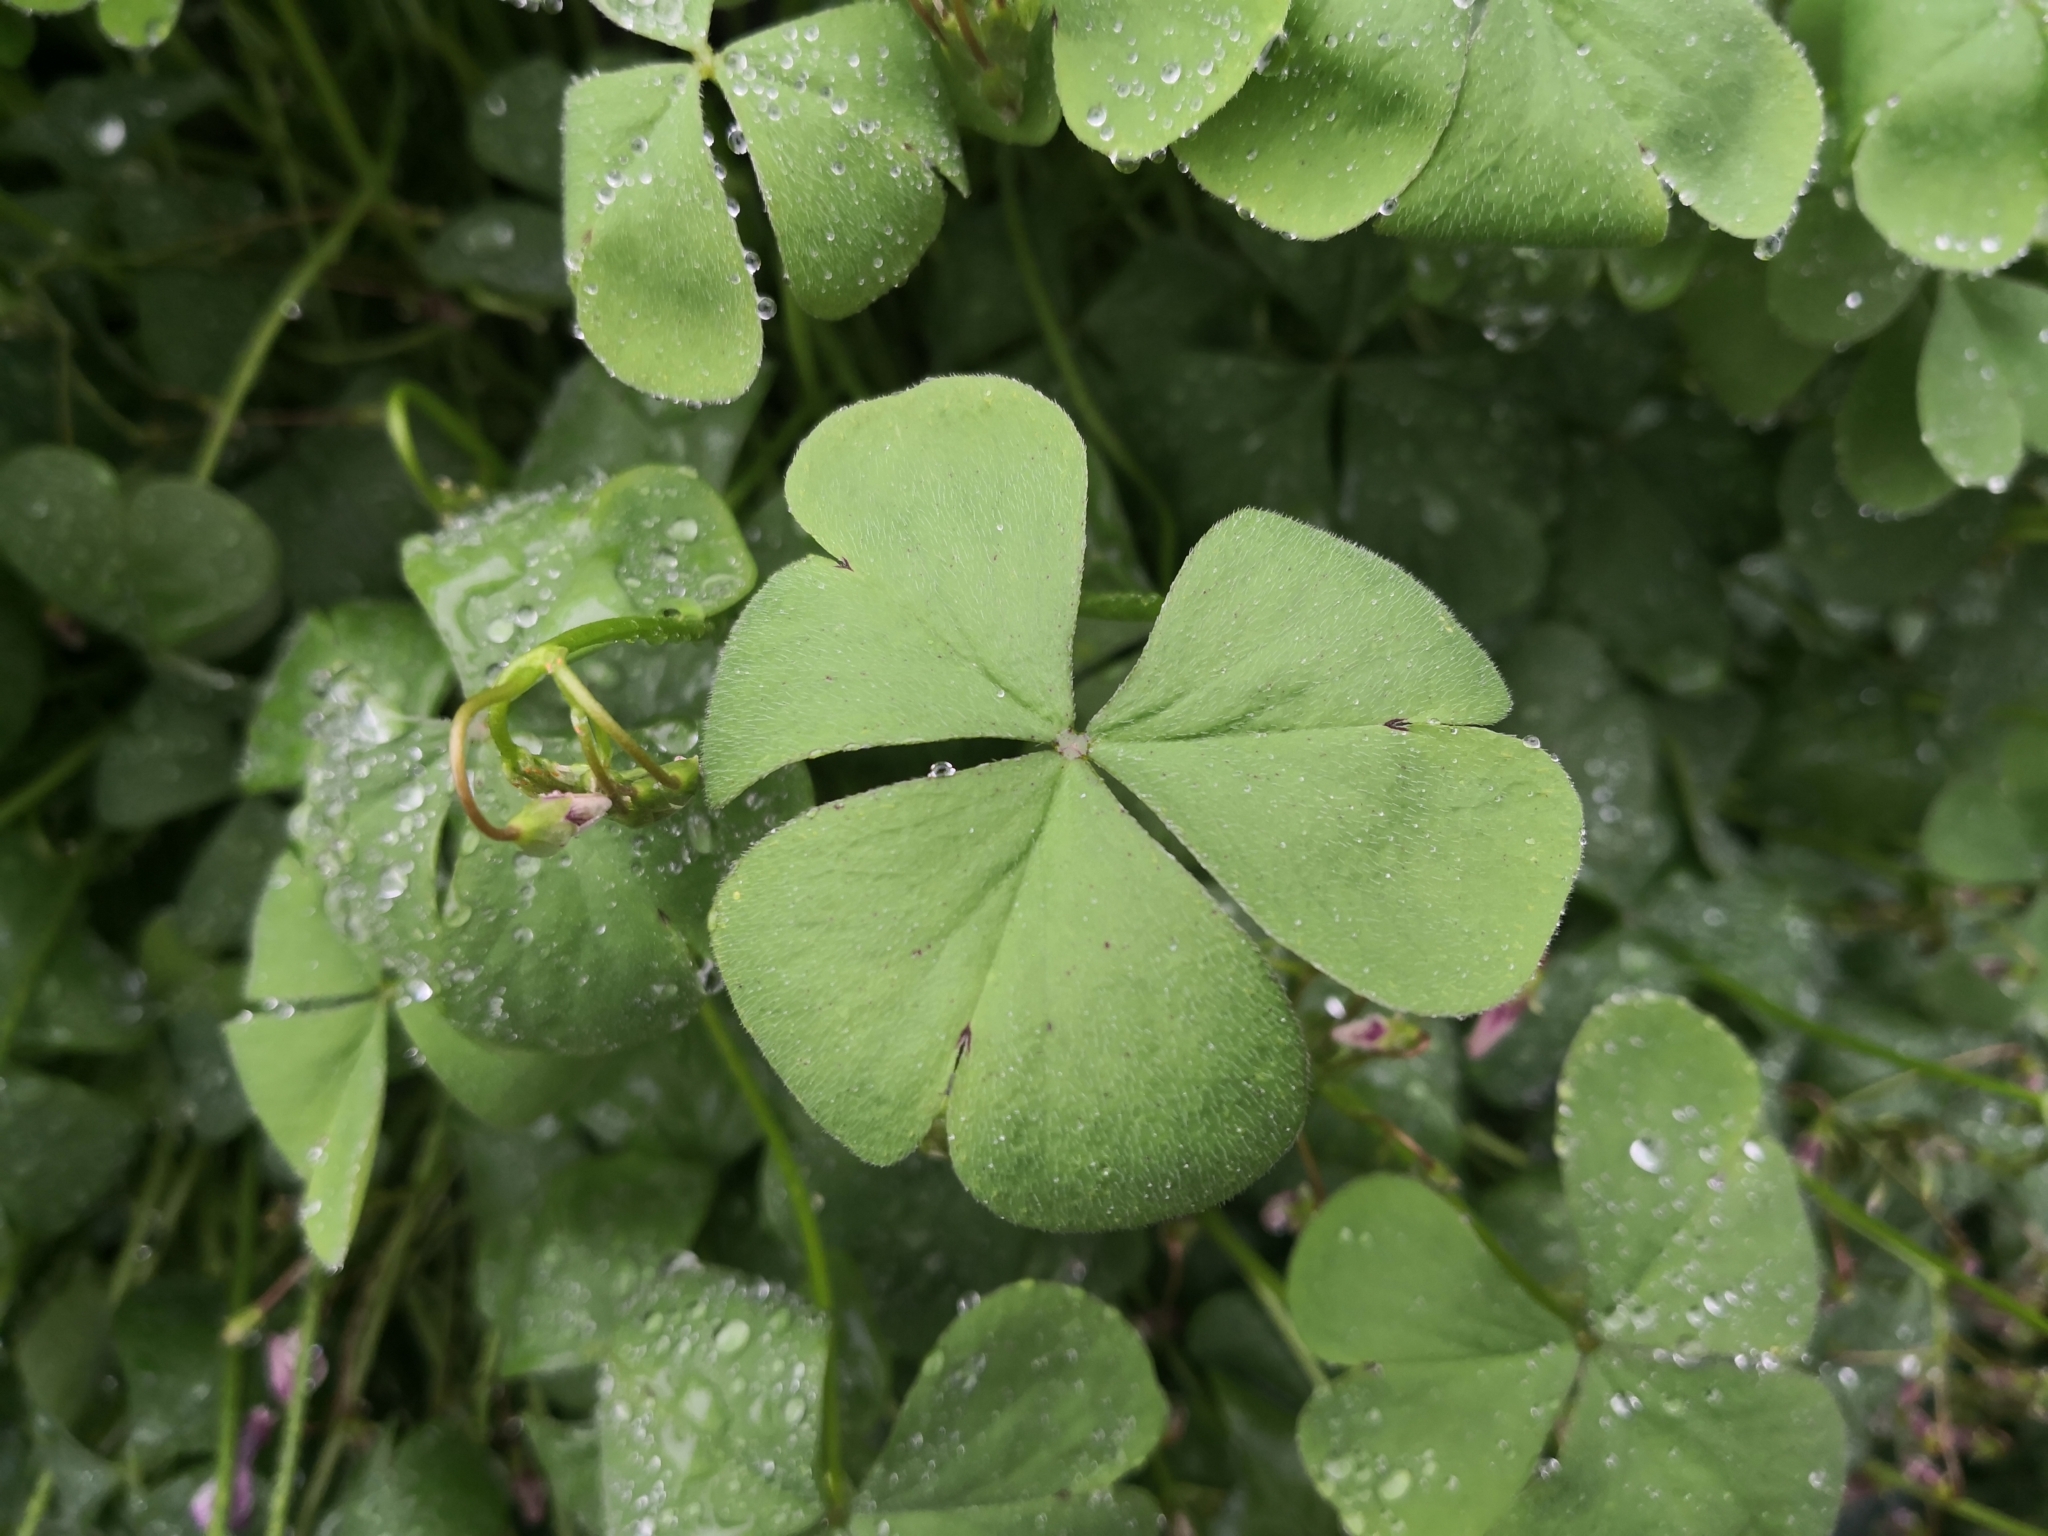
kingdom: Plantae
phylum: Tracheophyta
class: Magnoliopsida
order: Oxalidales
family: Oxalidaceae
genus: Oxalis
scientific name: Oxalis articulata
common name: Pink-sorrel
